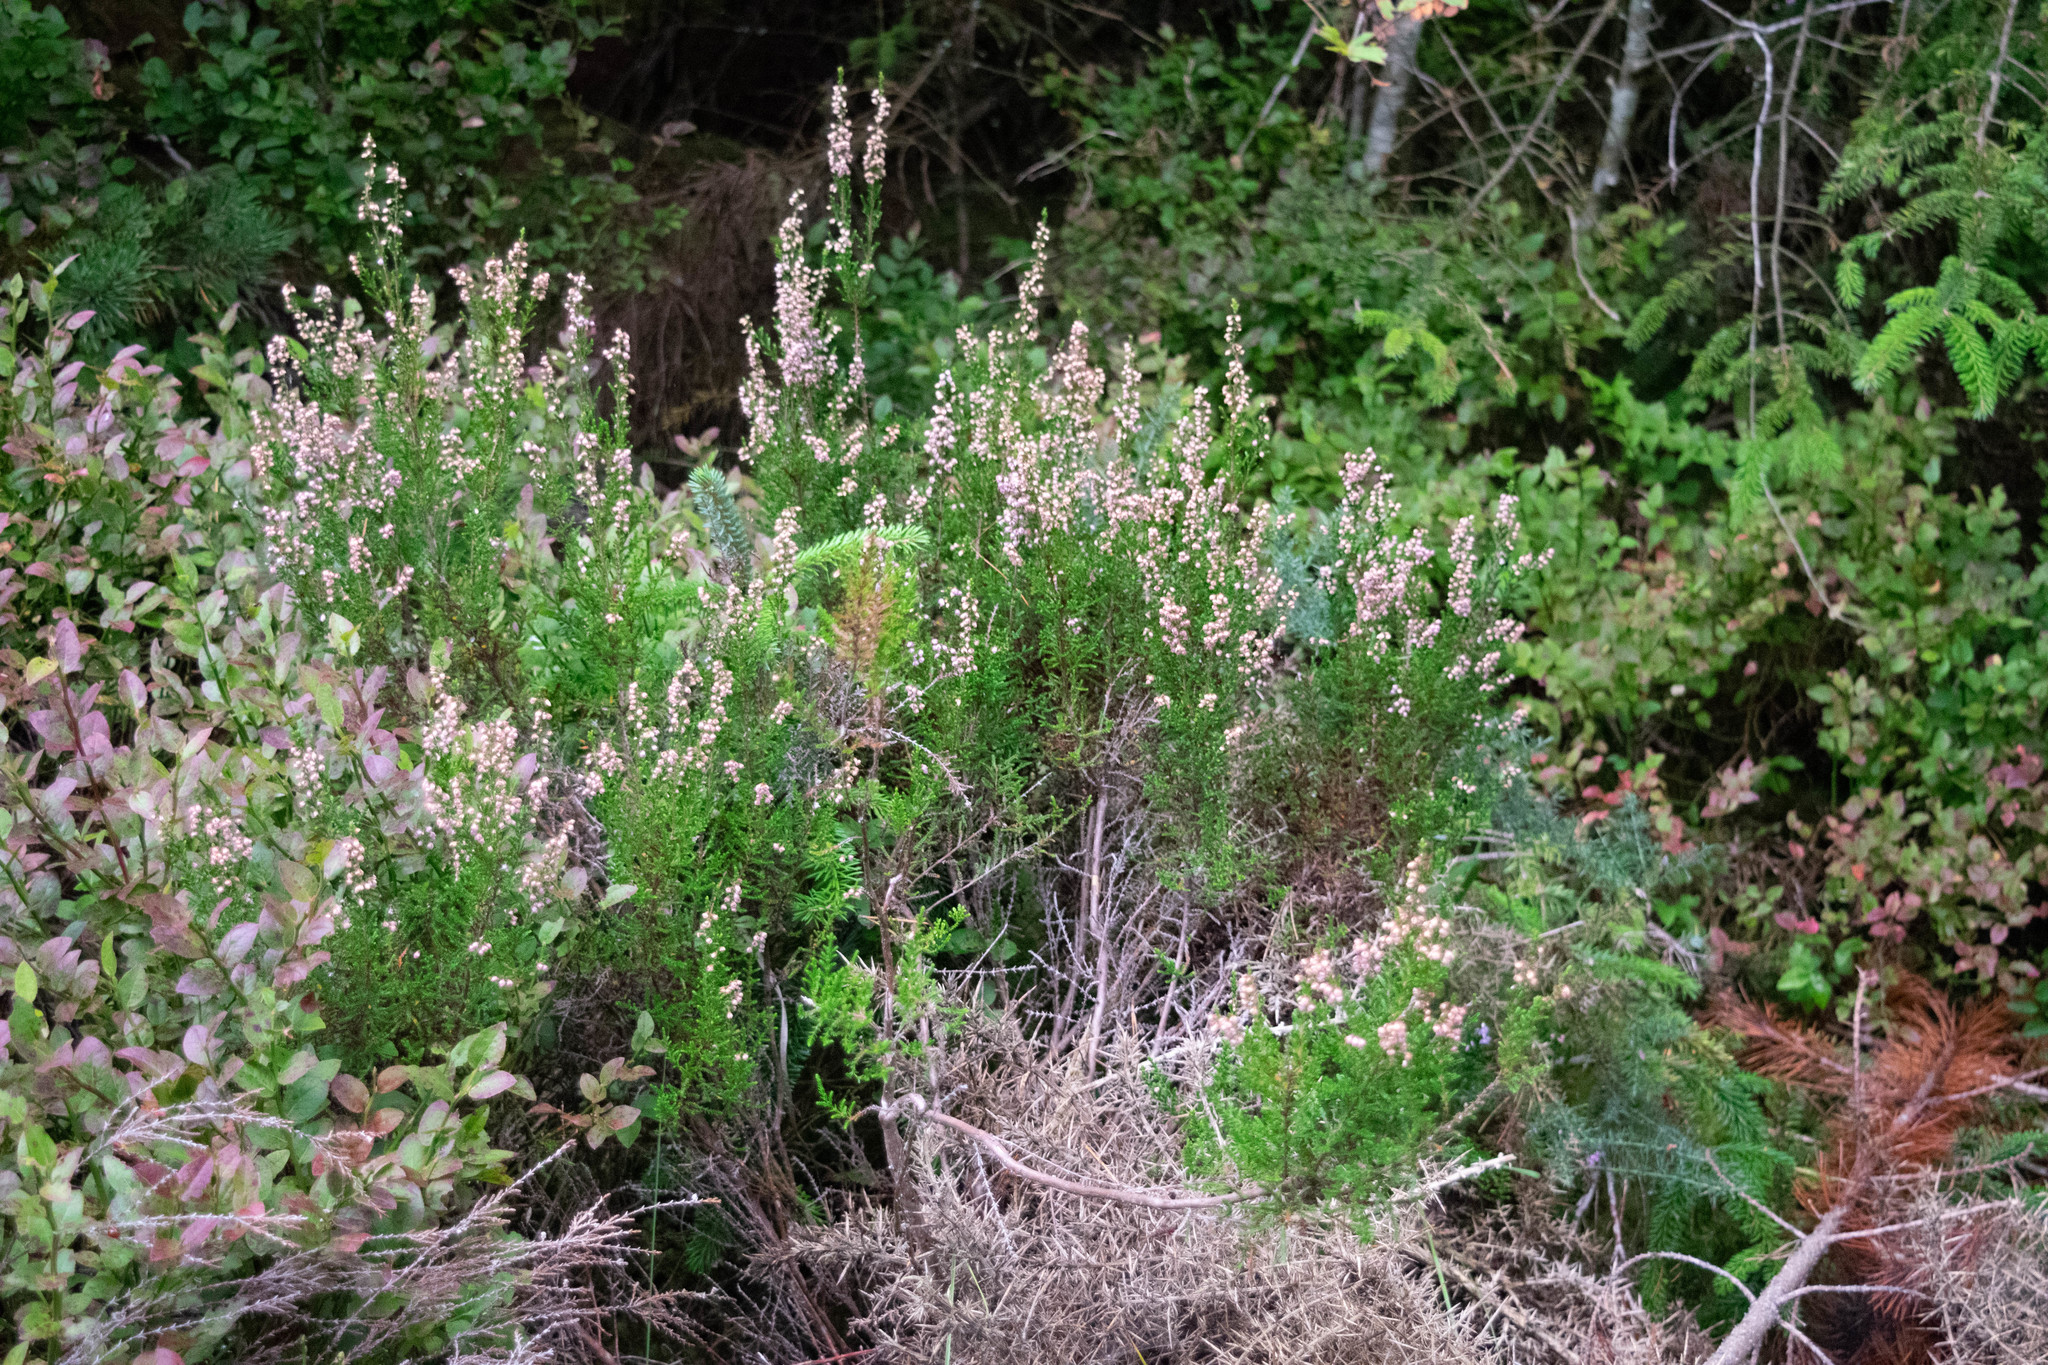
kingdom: Plantae
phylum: Tracheophyta
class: Magnoliopsida
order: Ericales
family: Ericaceae
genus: Calluna
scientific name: Calluna vulgaris
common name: Heather
